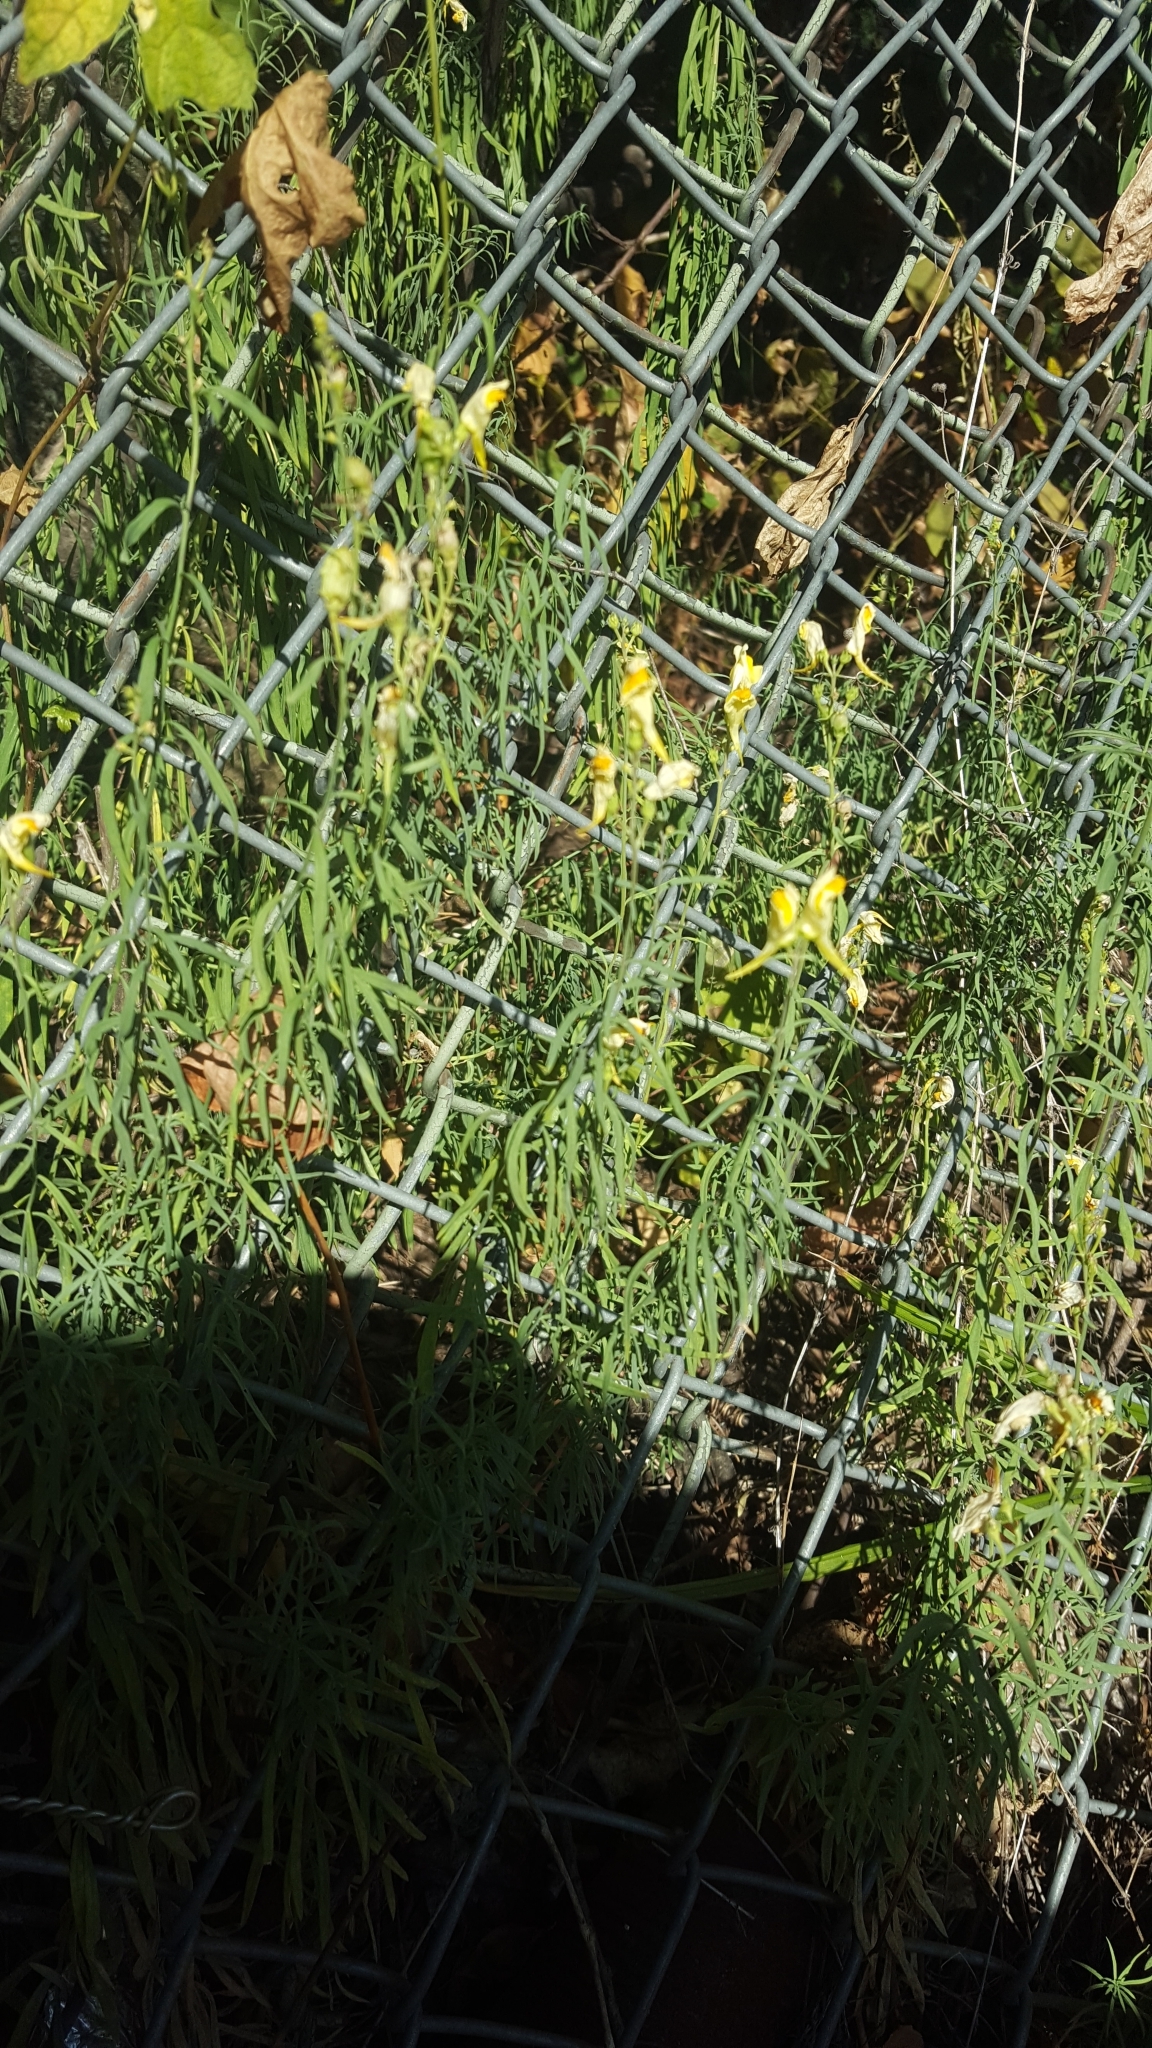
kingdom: Plantae
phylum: Tracheophyta
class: Magnoliopsida
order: Lamiales
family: Plantaginaceae
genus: Linaria
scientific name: Linaria vulgaris
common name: Butter and eggs
